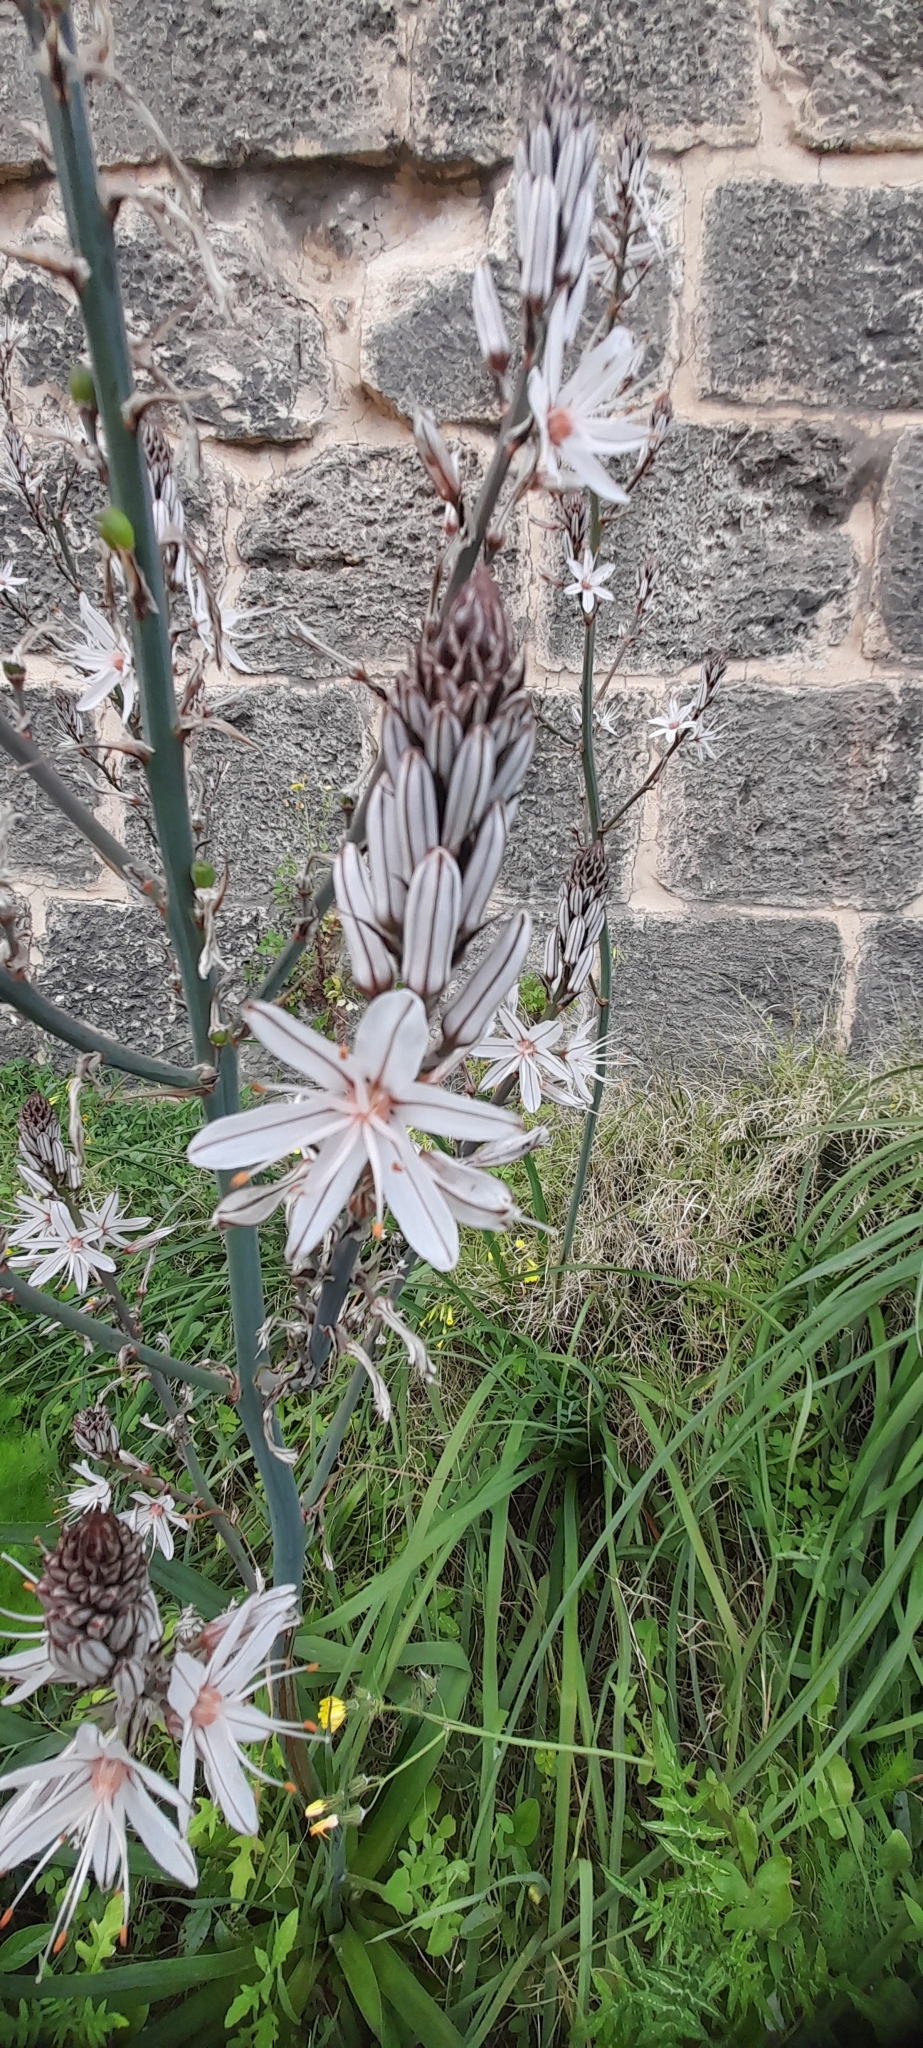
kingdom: Plantae
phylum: Tracheophyta
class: Liliopsida
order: Asparagales
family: Asphodelaceae
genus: Asphodelus
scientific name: Asphodelus ramosus
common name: Silverrod
